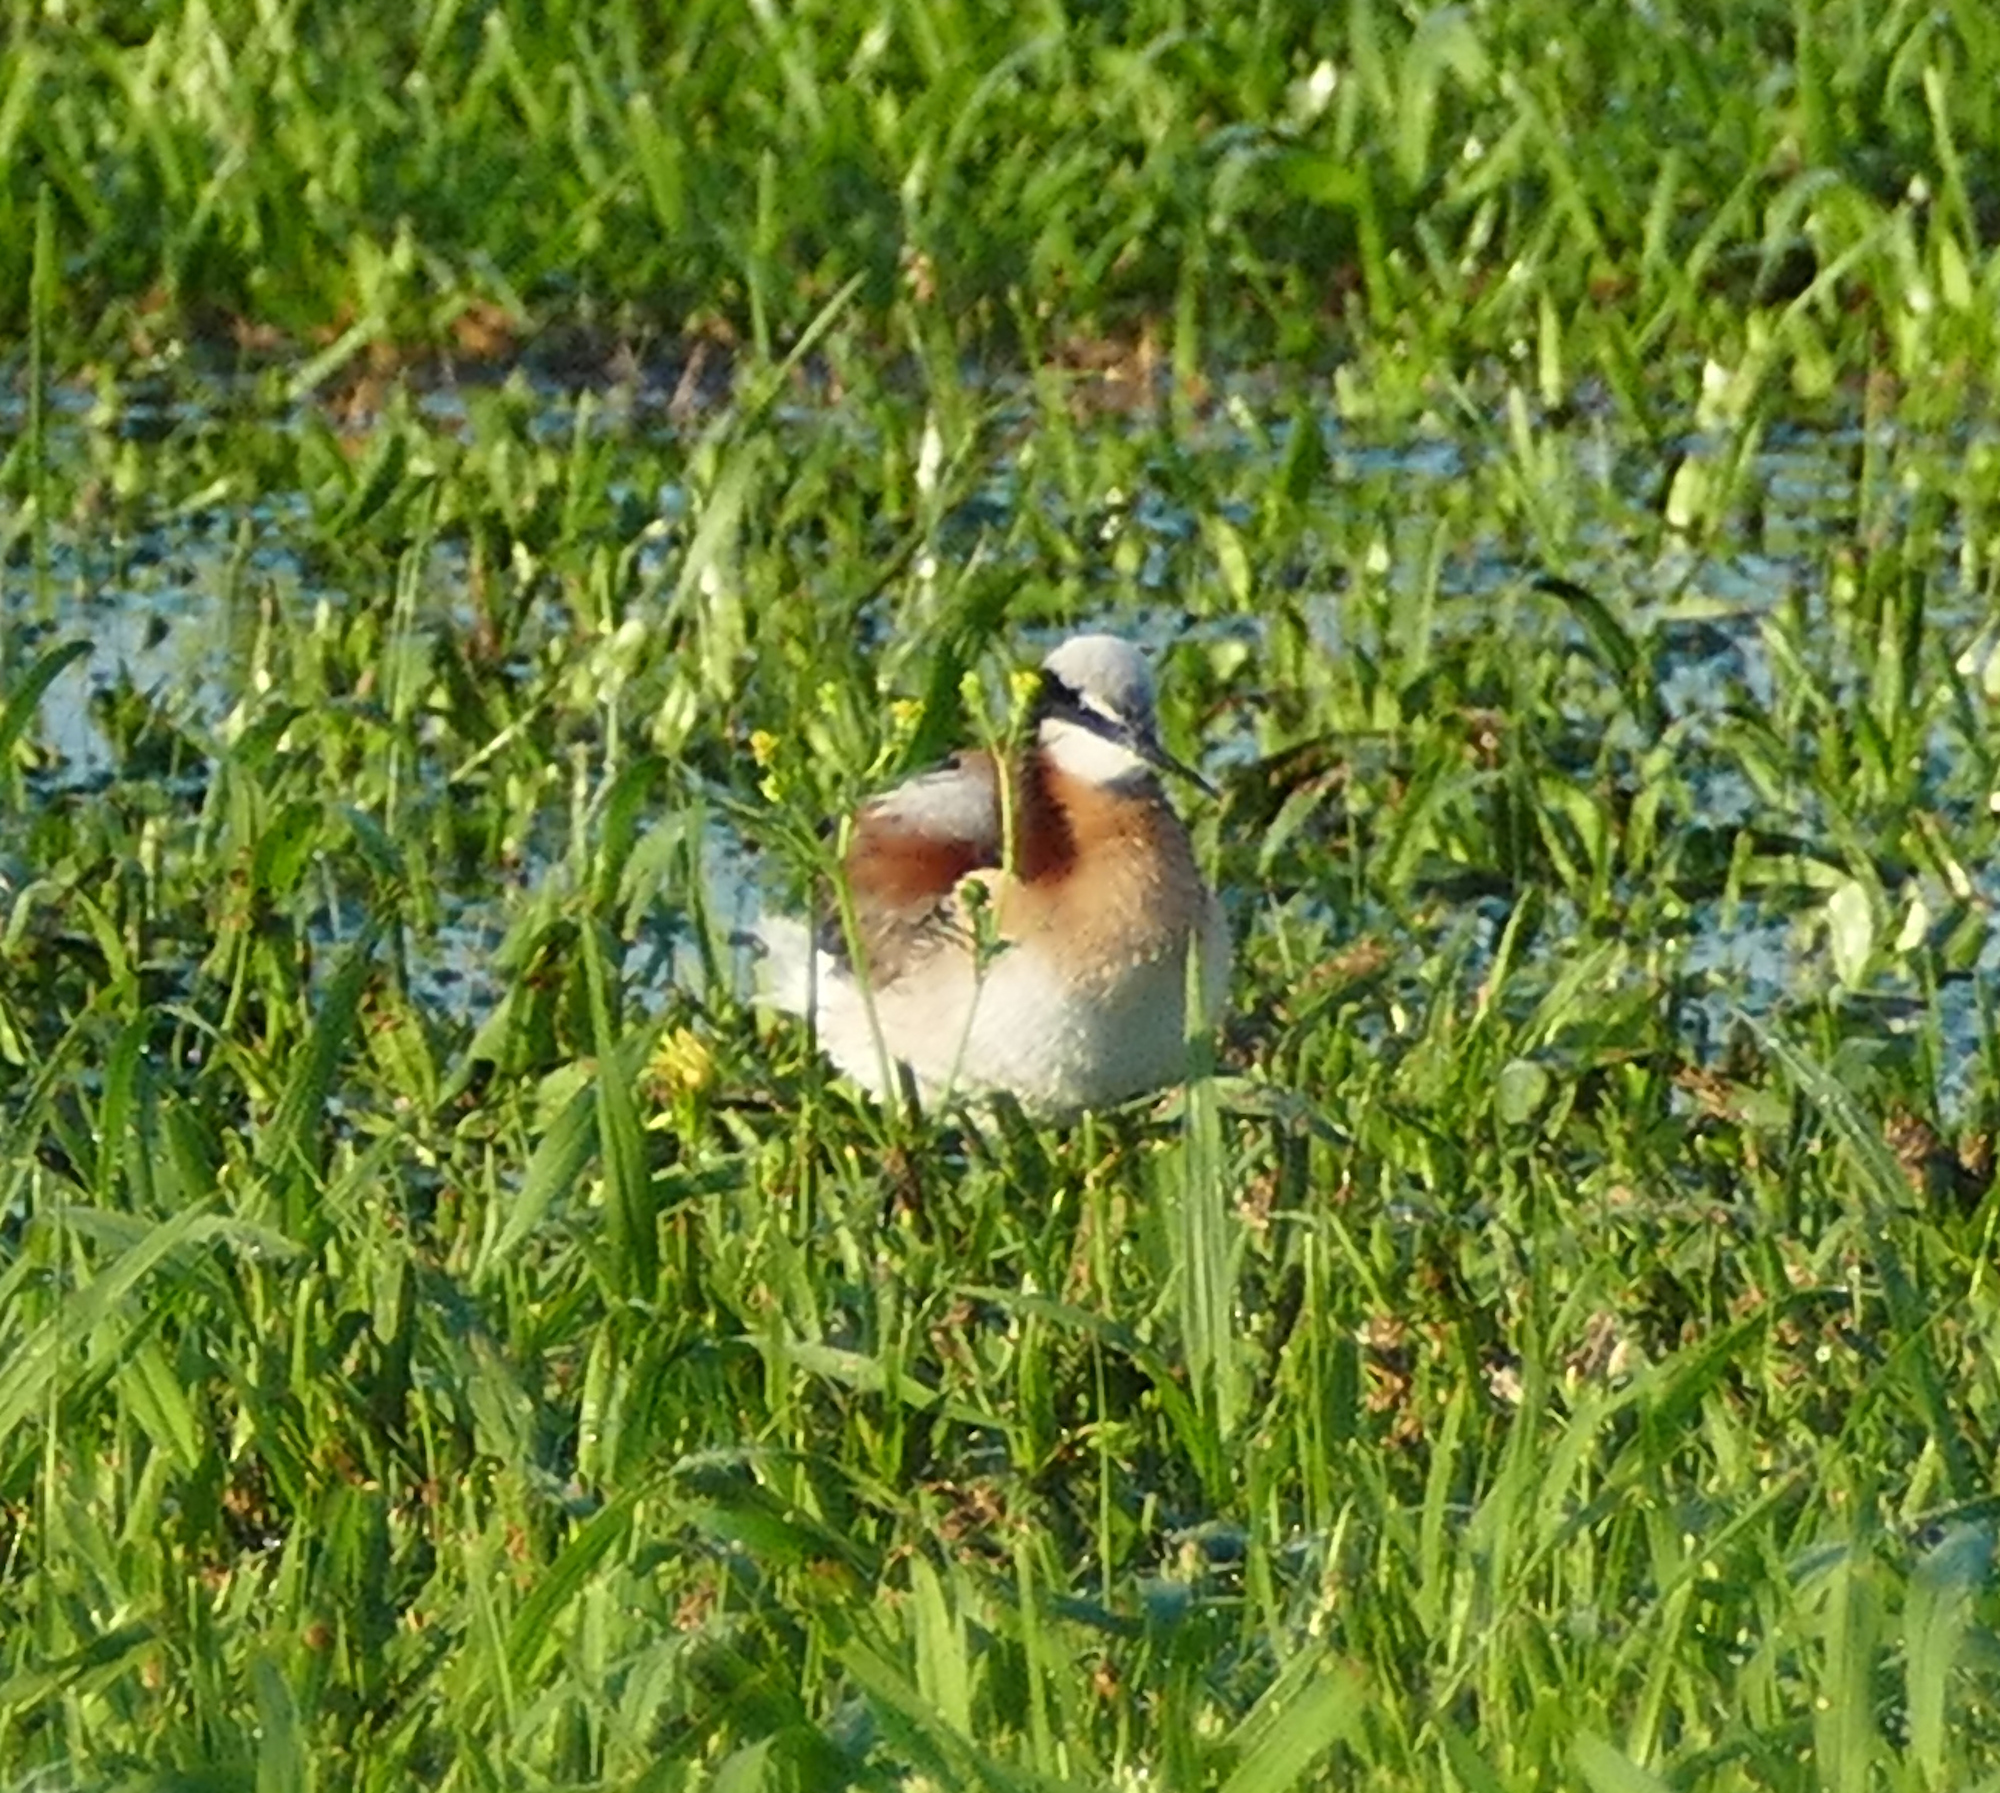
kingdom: Animalia
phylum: Chordata
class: Aves
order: Charadriiformes
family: Scolopacidae
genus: Phalaropus
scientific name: Phalaropus tricolor
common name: Wilson's phalarope
